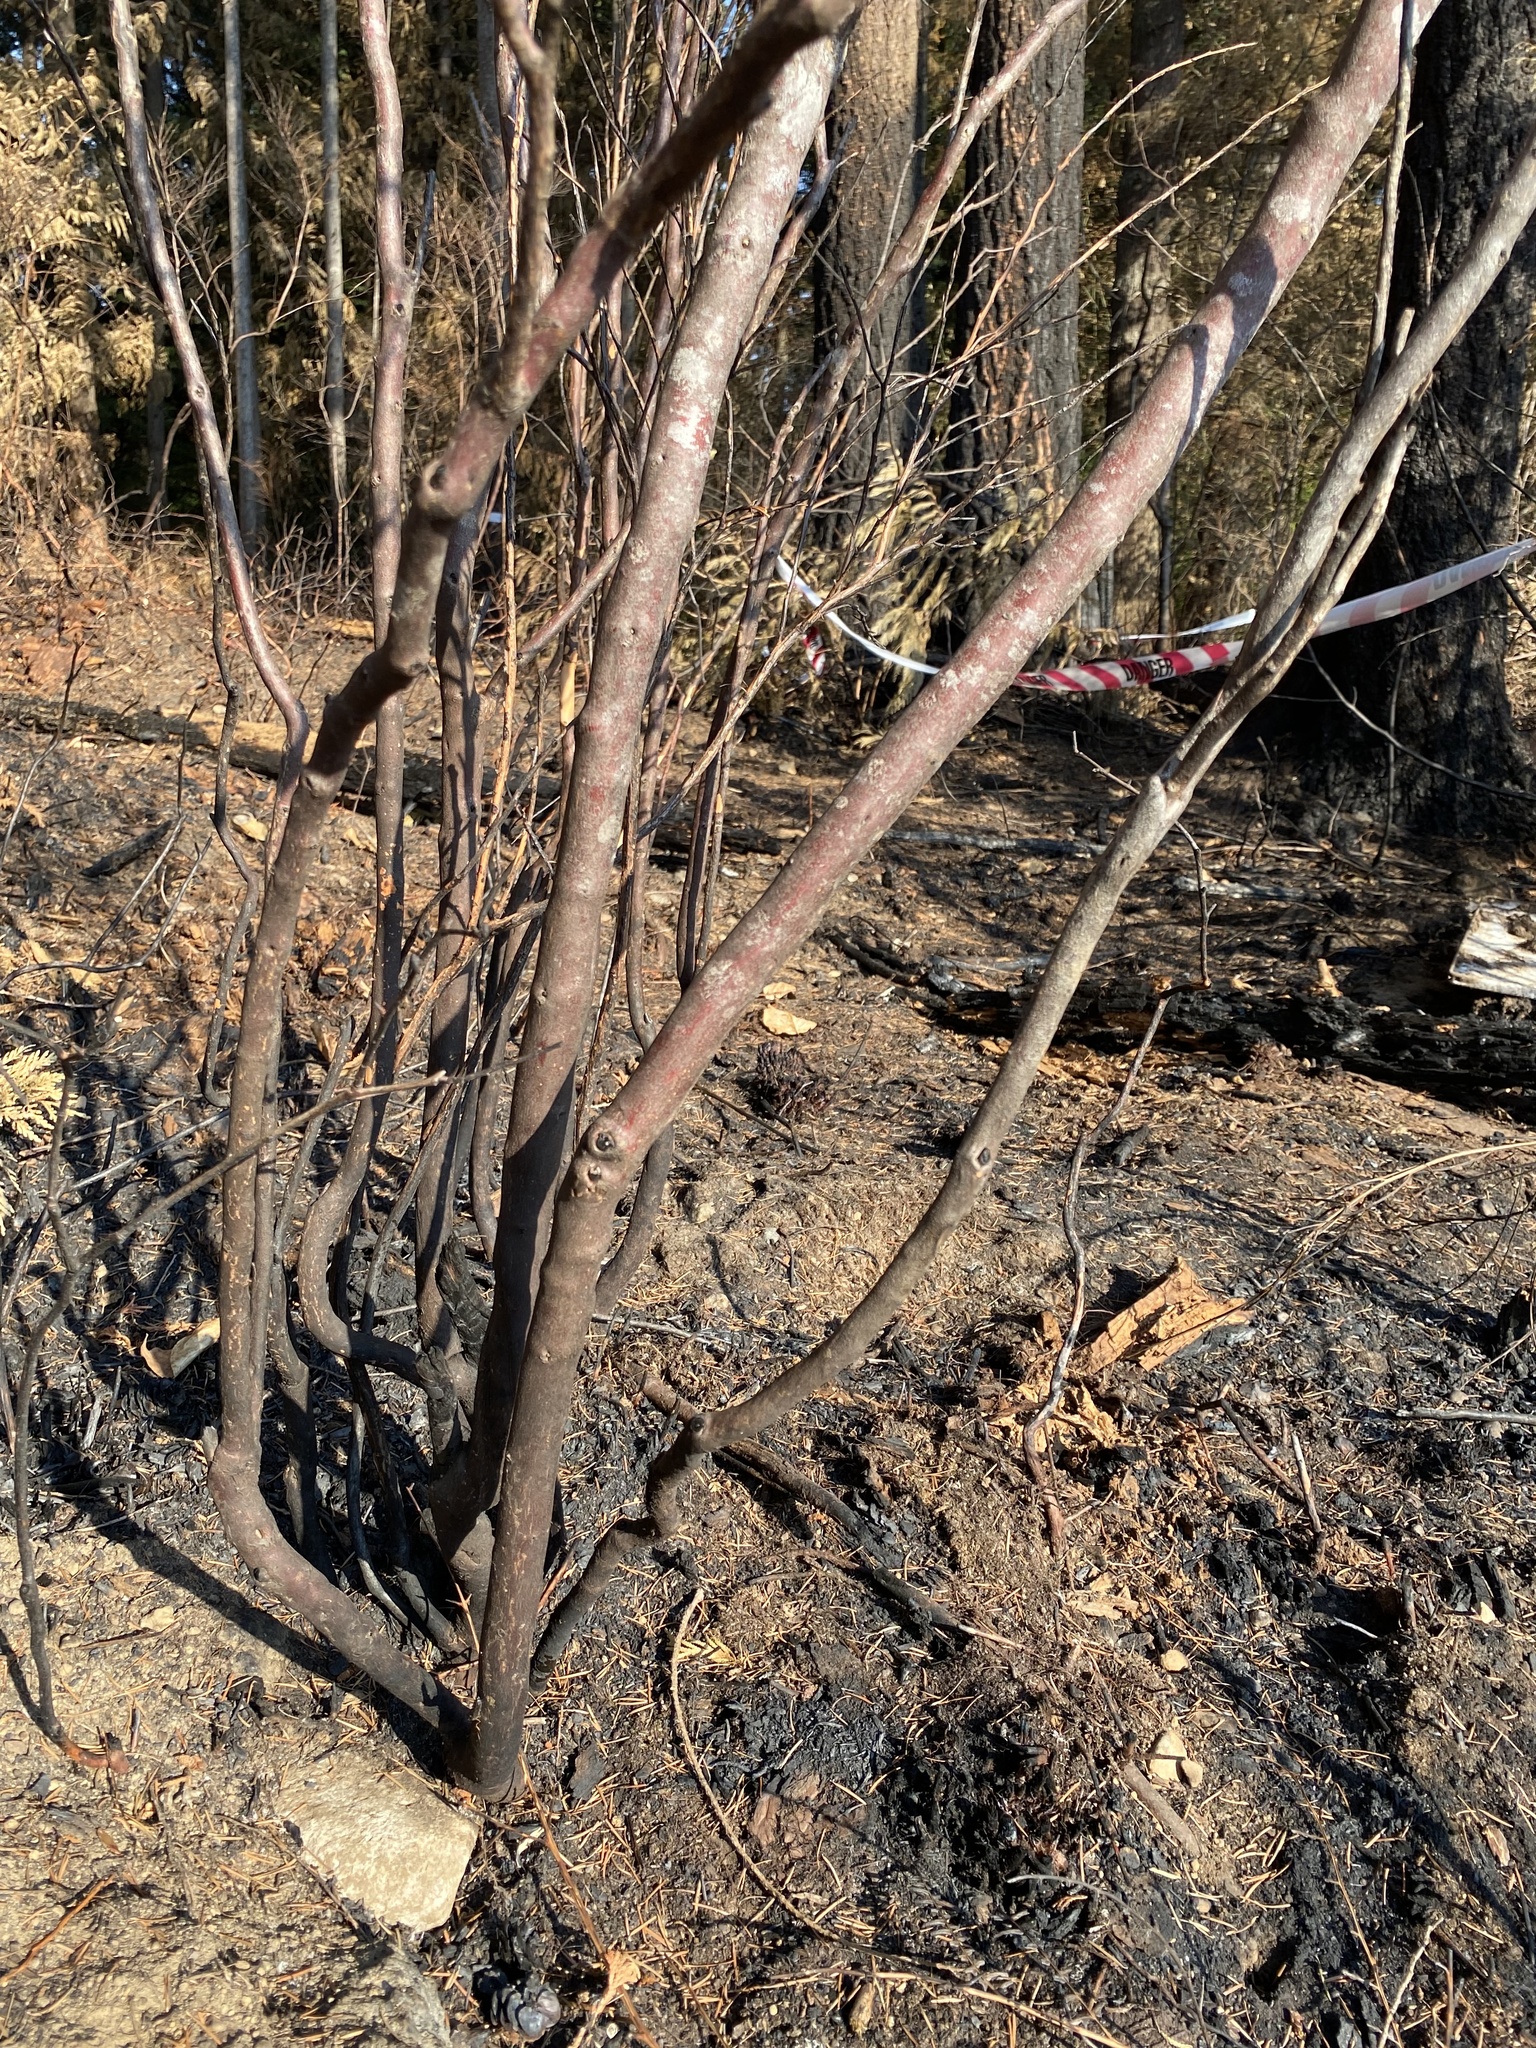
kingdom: Plantae
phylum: Tracheophyta
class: Magnoliopsida
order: Ericales
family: Ericaceae
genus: Vaccinium
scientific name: Vaccinium parvifolium
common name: Red-huckleberry
